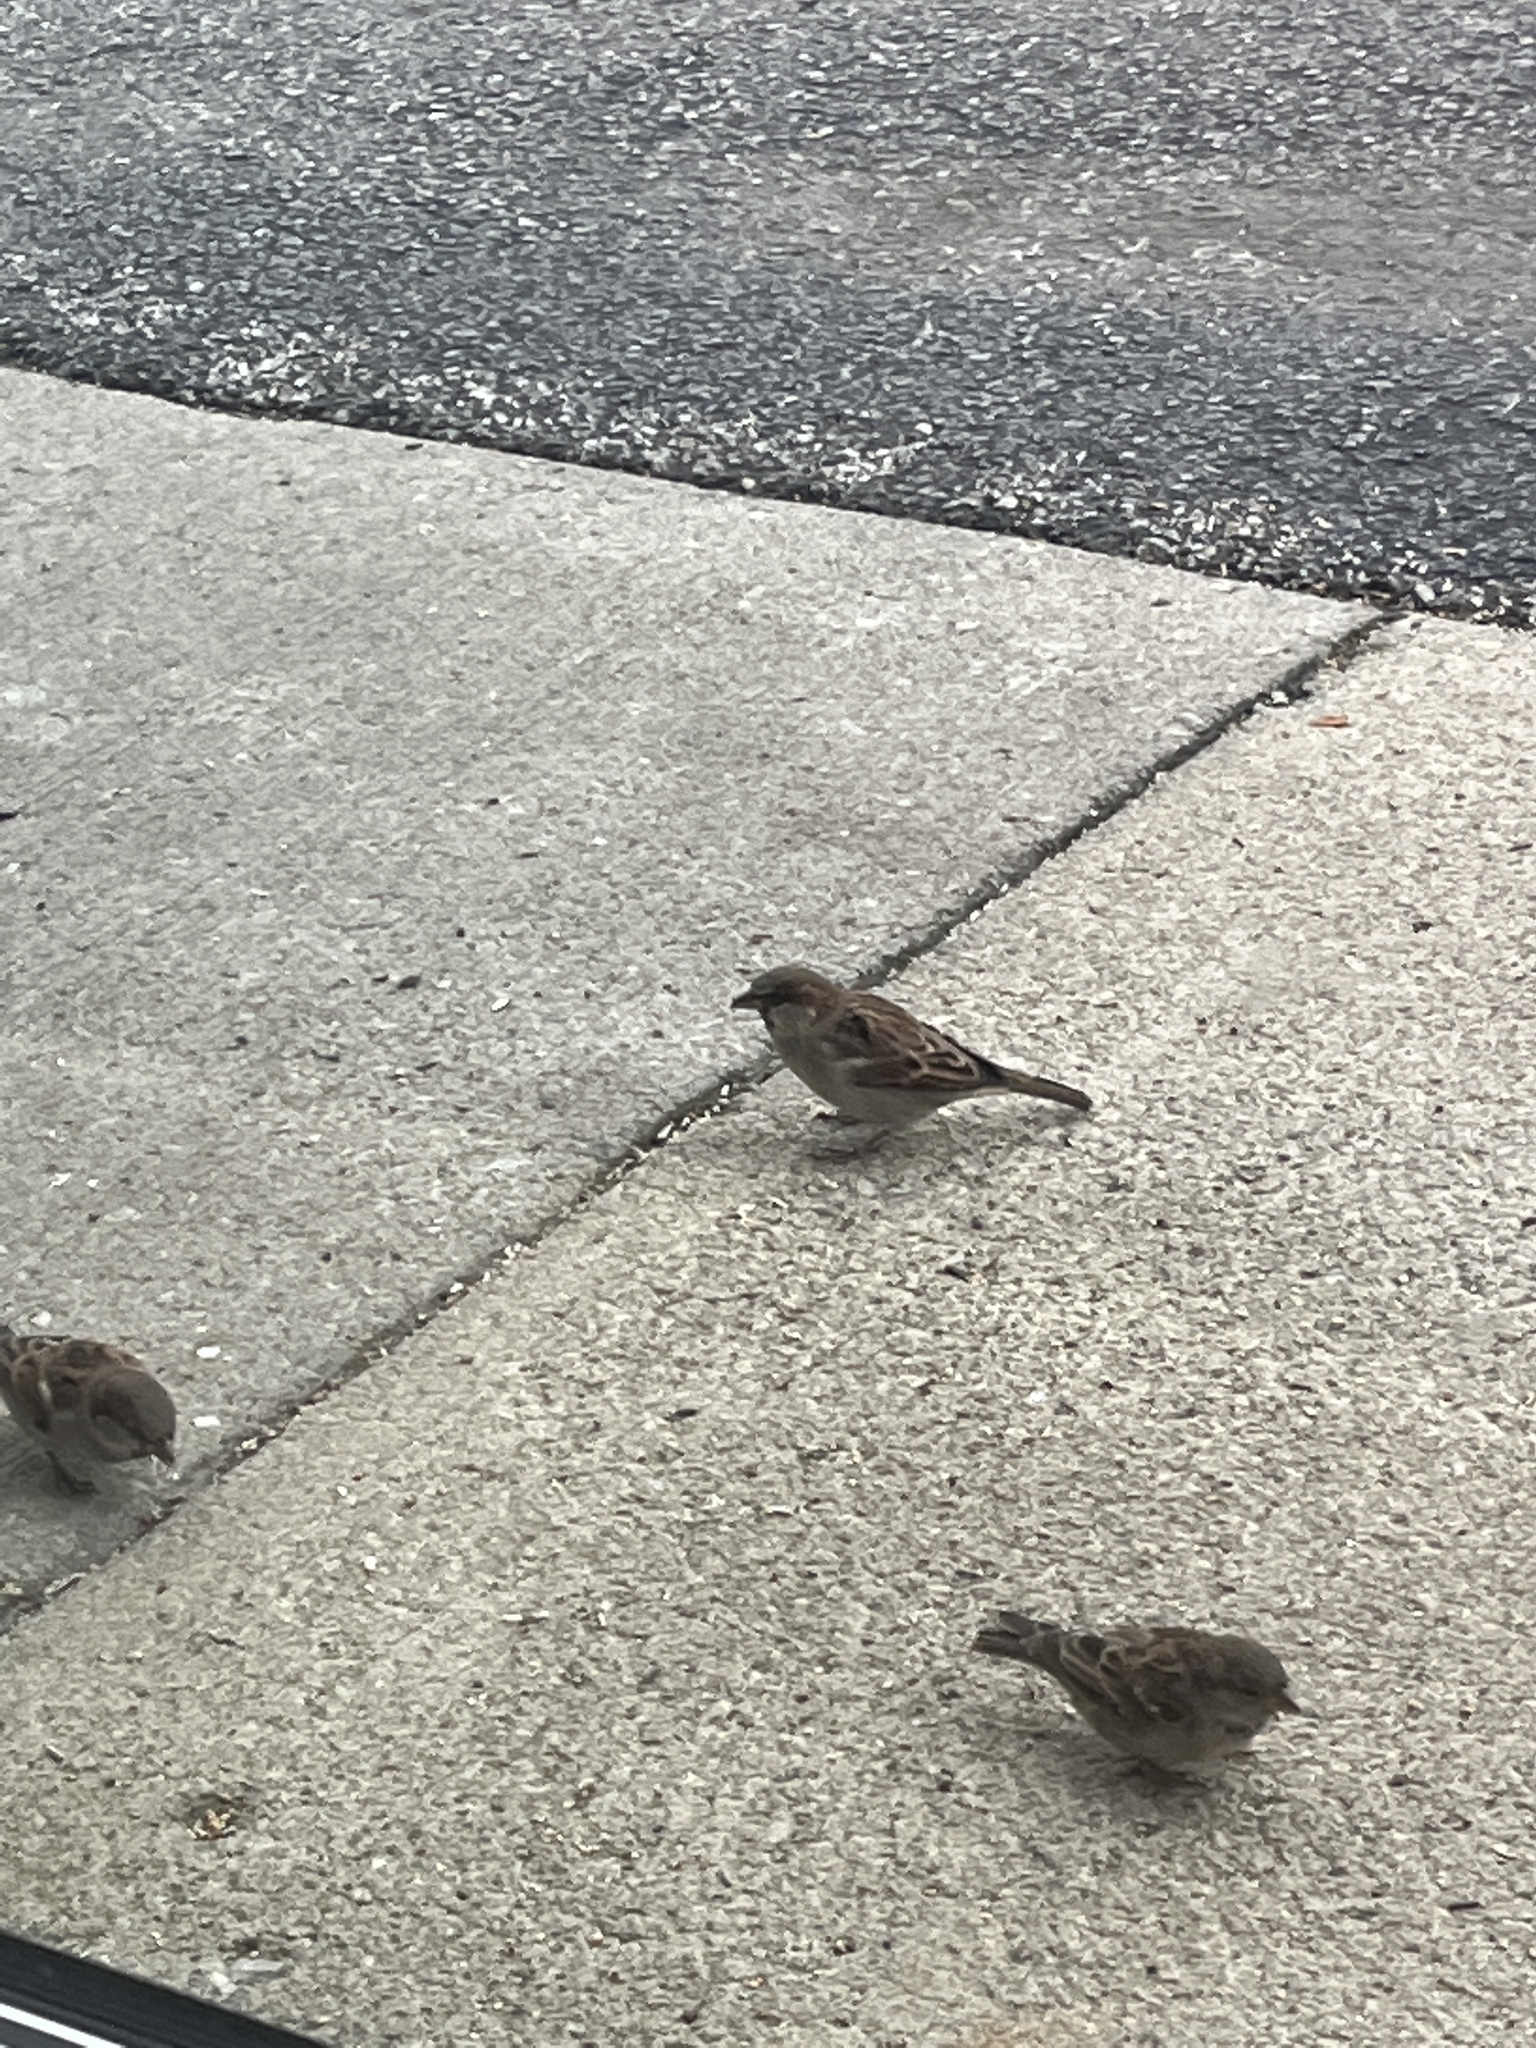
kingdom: Animalia
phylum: Chordata
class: Aves
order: Passeriformes
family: Passeridae
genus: Passer
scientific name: Passer domesticus
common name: House sparrow
